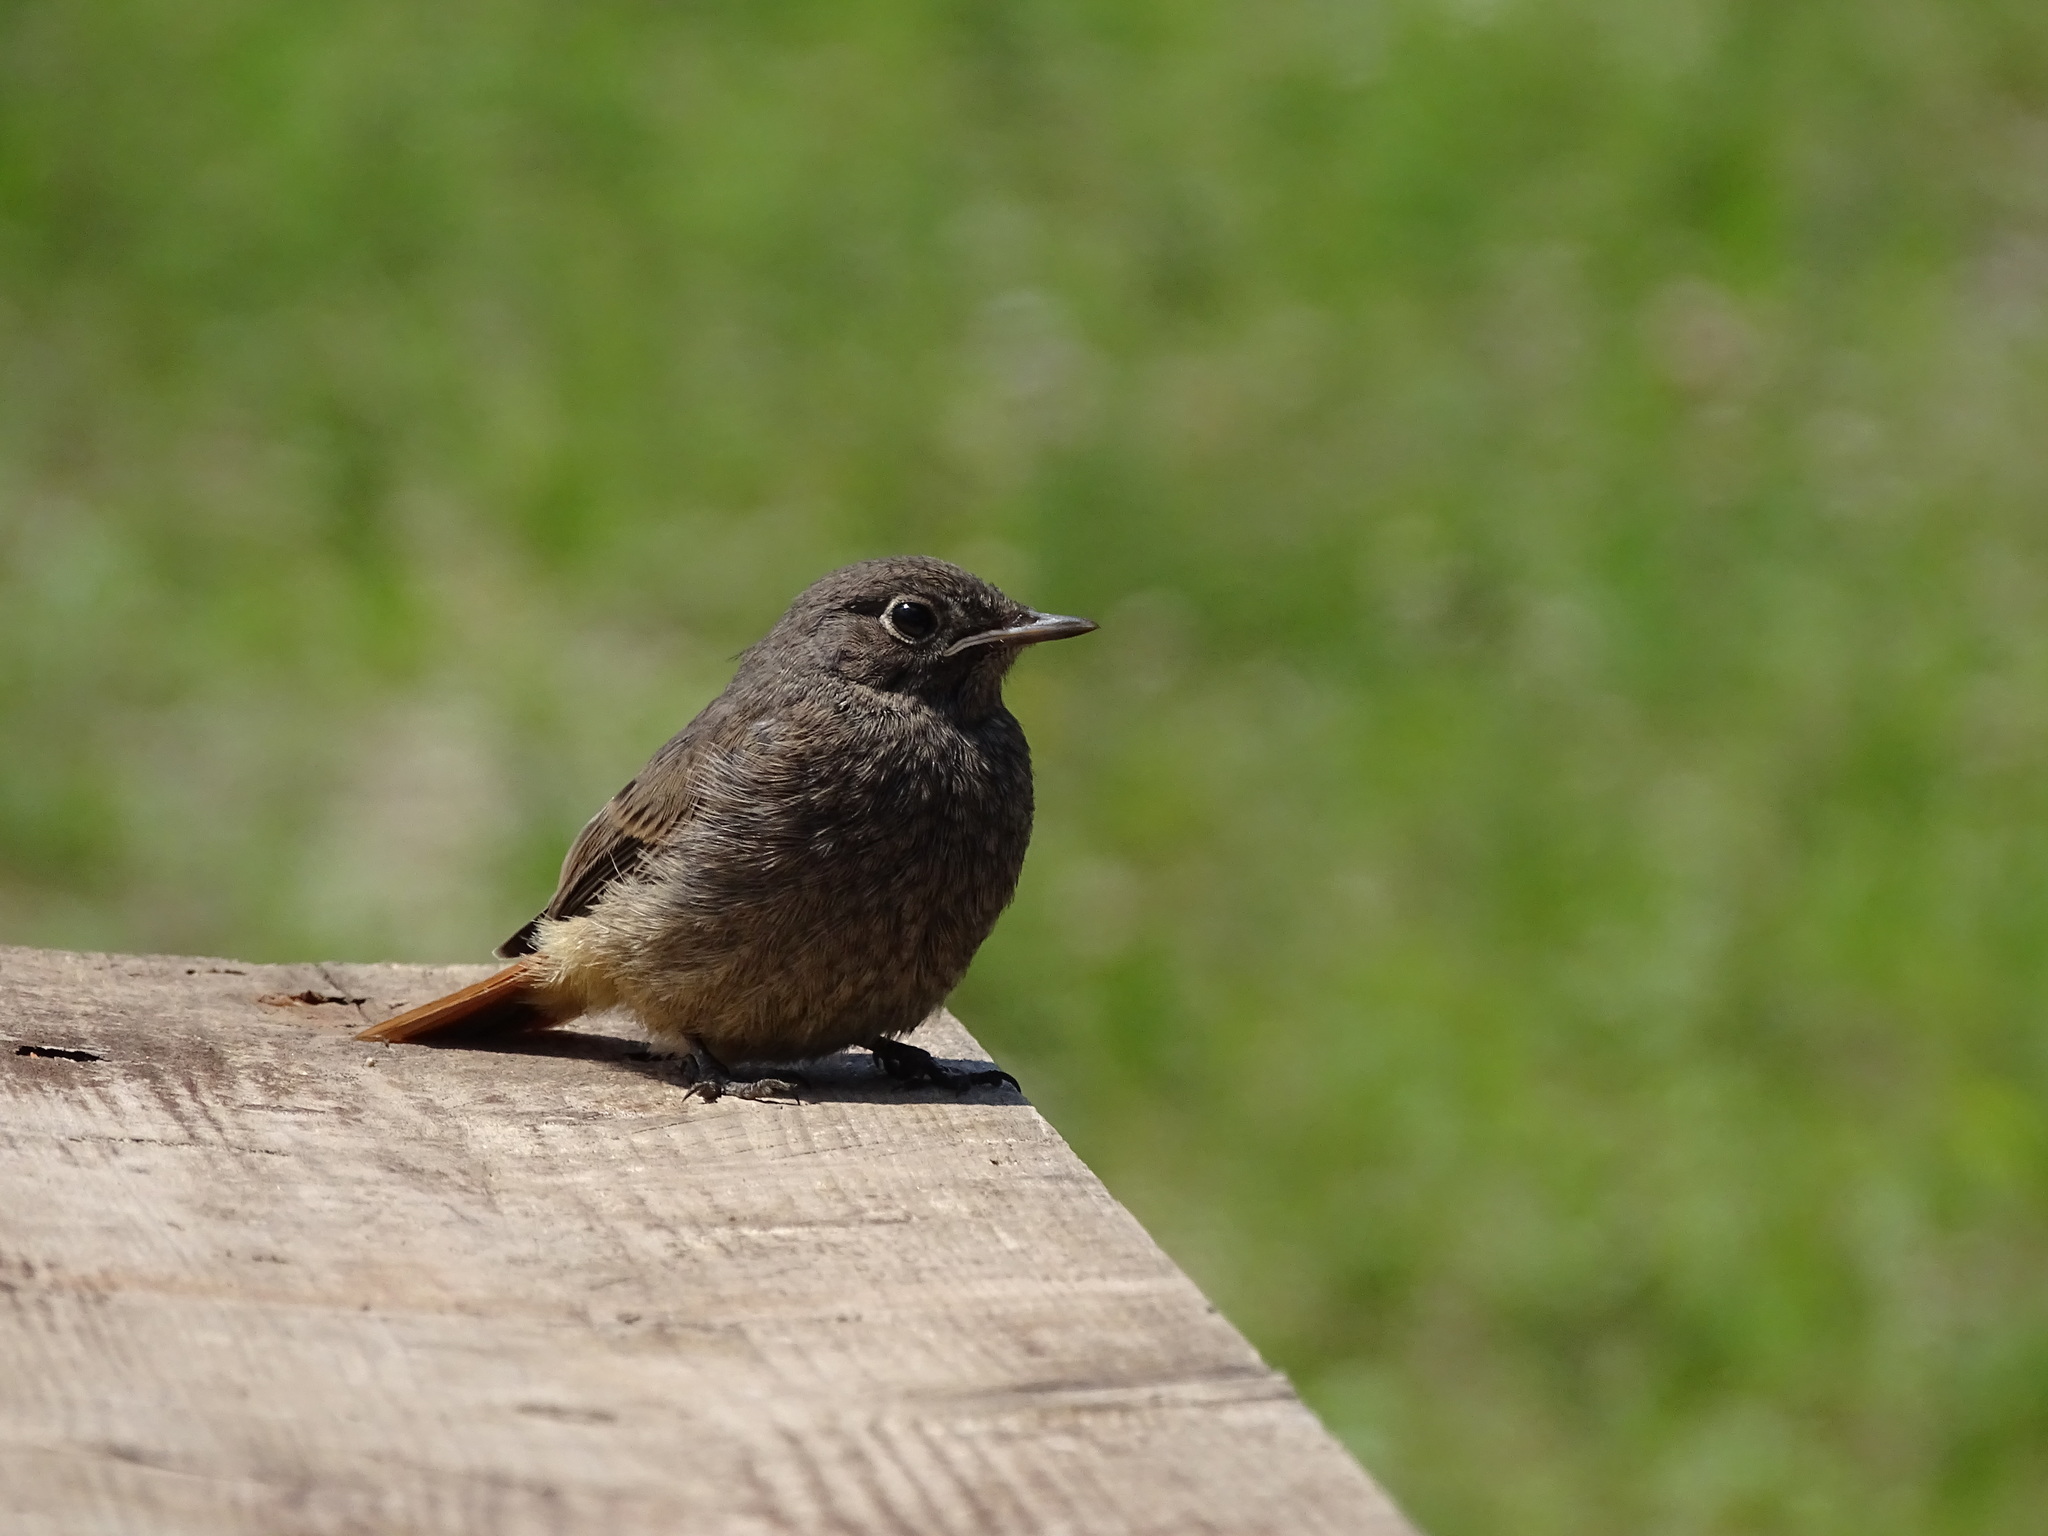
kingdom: Animalia
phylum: Chordata
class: Aves
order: Passeriformes
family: Muscicapidae
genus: Phoenicurus
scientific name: Phoenicurus ochruros
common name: Black redstart
